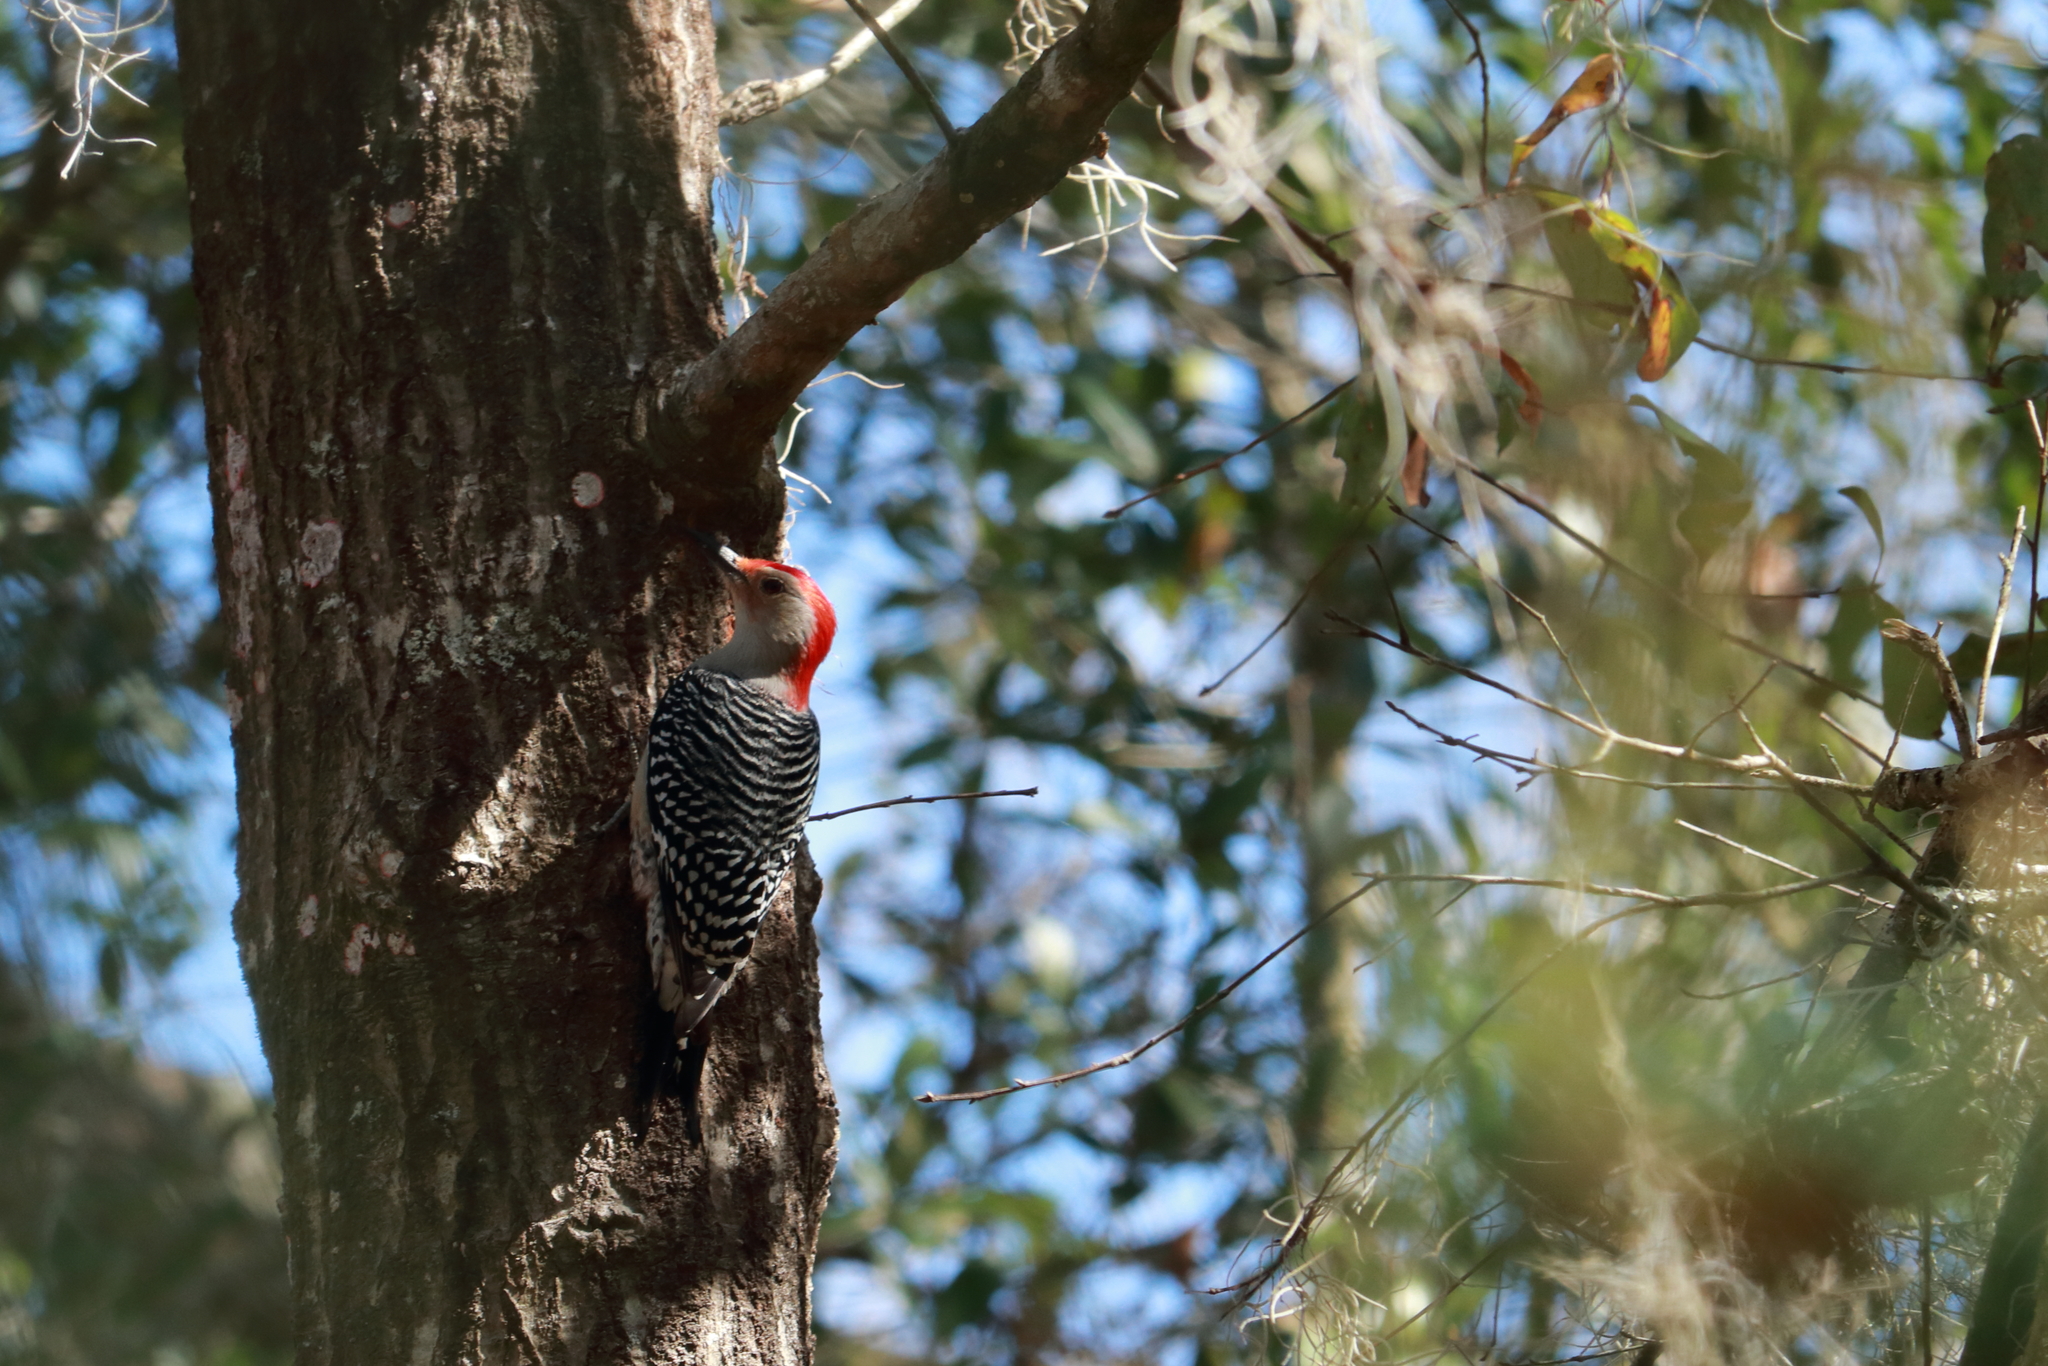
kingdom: Animalia
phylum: Chordata
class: Aves
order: Piciformes
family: Picidae
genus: Melanerpes
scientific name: Melanerpes carolinus
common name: Red-bellied woodpecker
